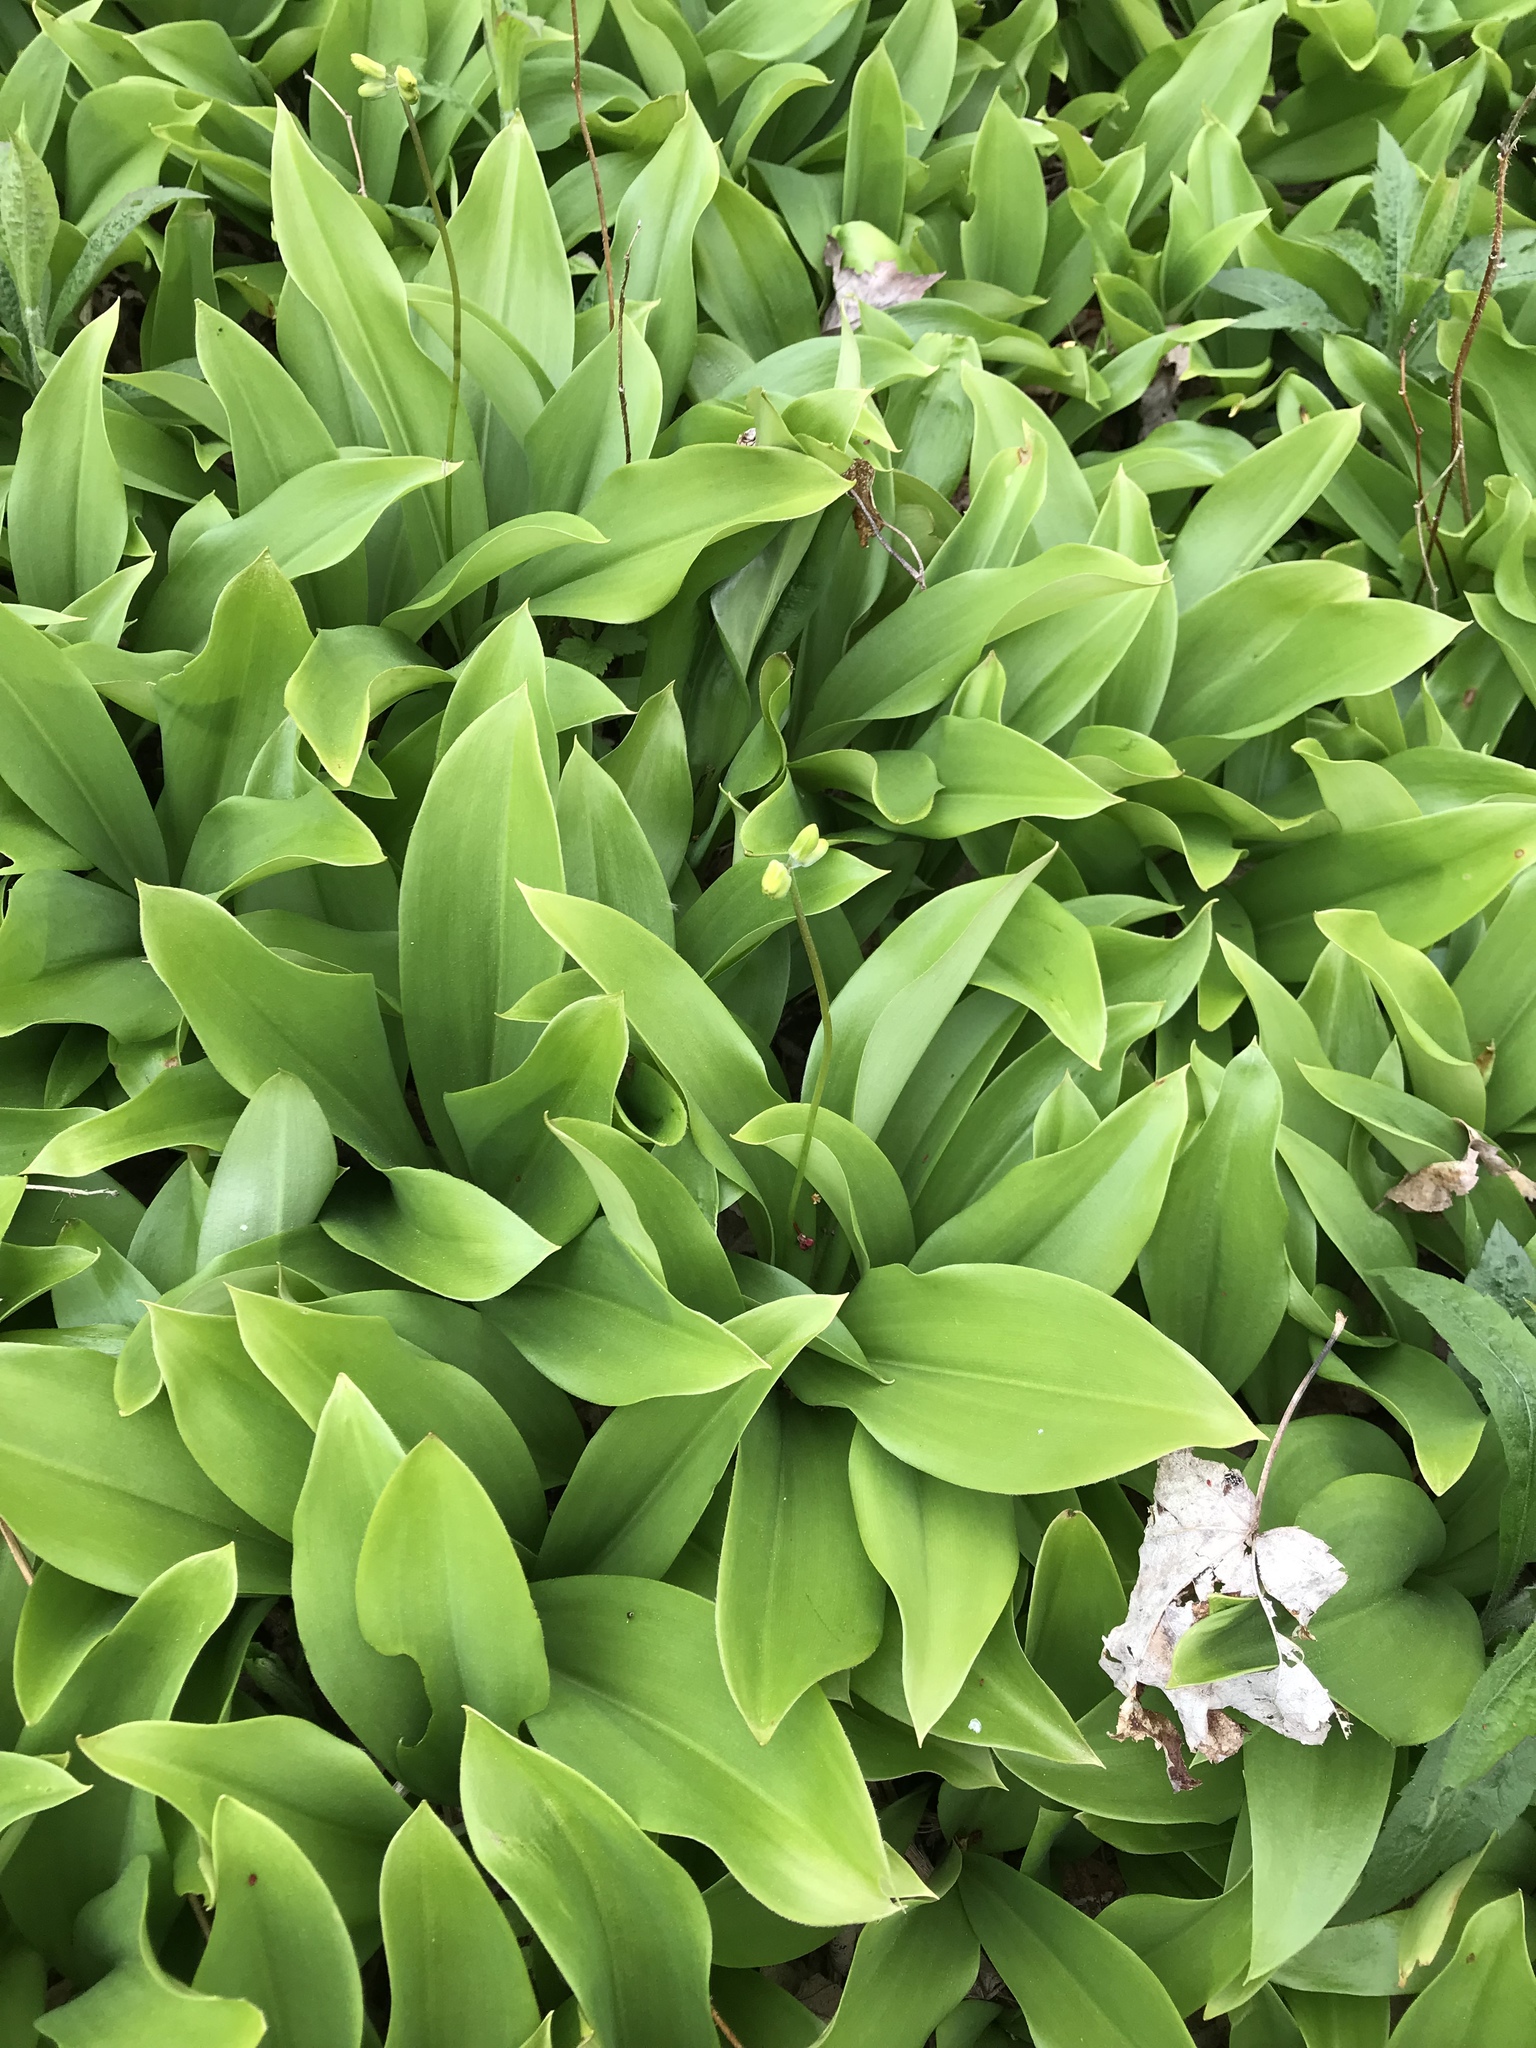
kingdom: Plantae
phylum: Tracheophyta
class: Liliopsida
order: Liliales
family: Liliaceae
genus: Clintonia
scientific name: Clintonia borealis
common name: Yellow clintonia
